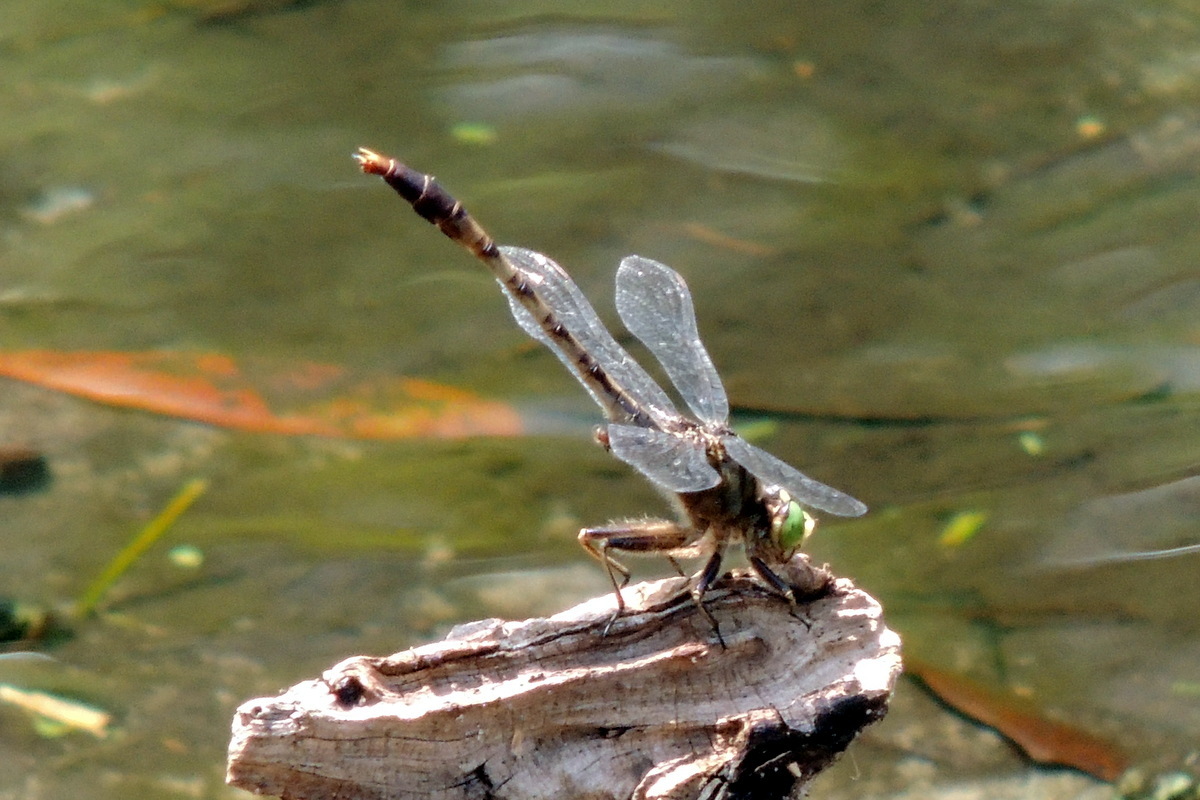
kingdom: Animalia
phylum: Arthropoda
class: Insecta
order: Odonata
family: Gomphidae
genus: Arigomphus
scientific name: Arigomphus pallidus
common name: Gray-green clubtail
